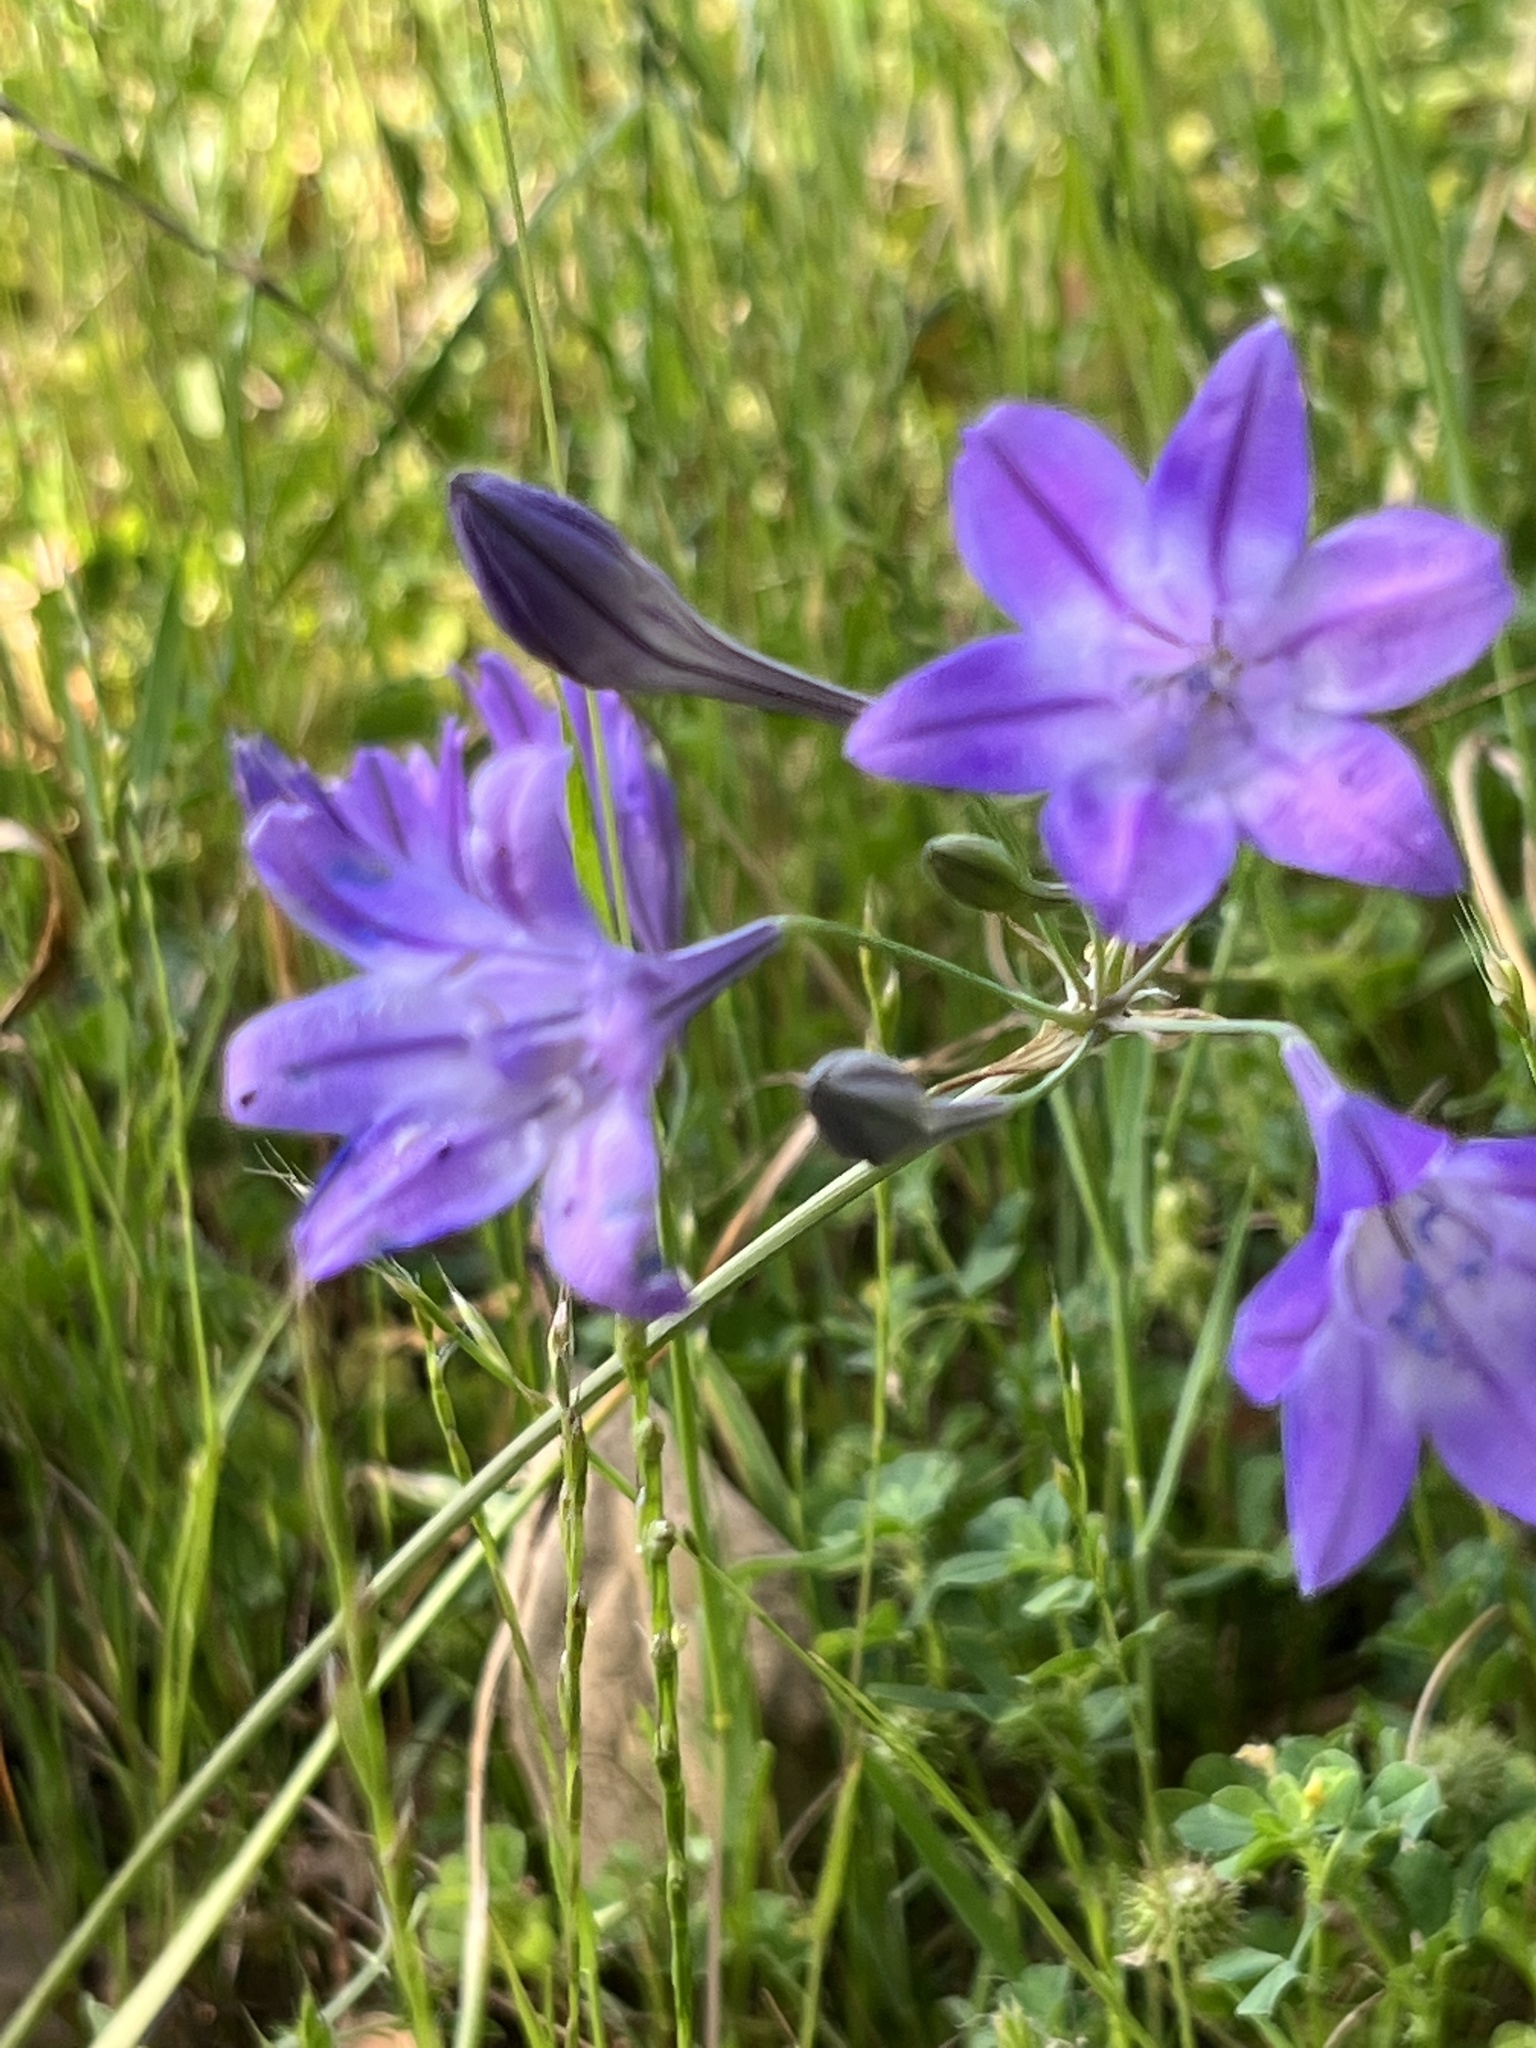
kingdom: Plantae
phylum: Tracheophyta
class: Liliopsida
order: Asparagales
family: Asparagaceae
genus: Triteleia
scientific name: Triteleia laxa
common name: Triplet-lily
